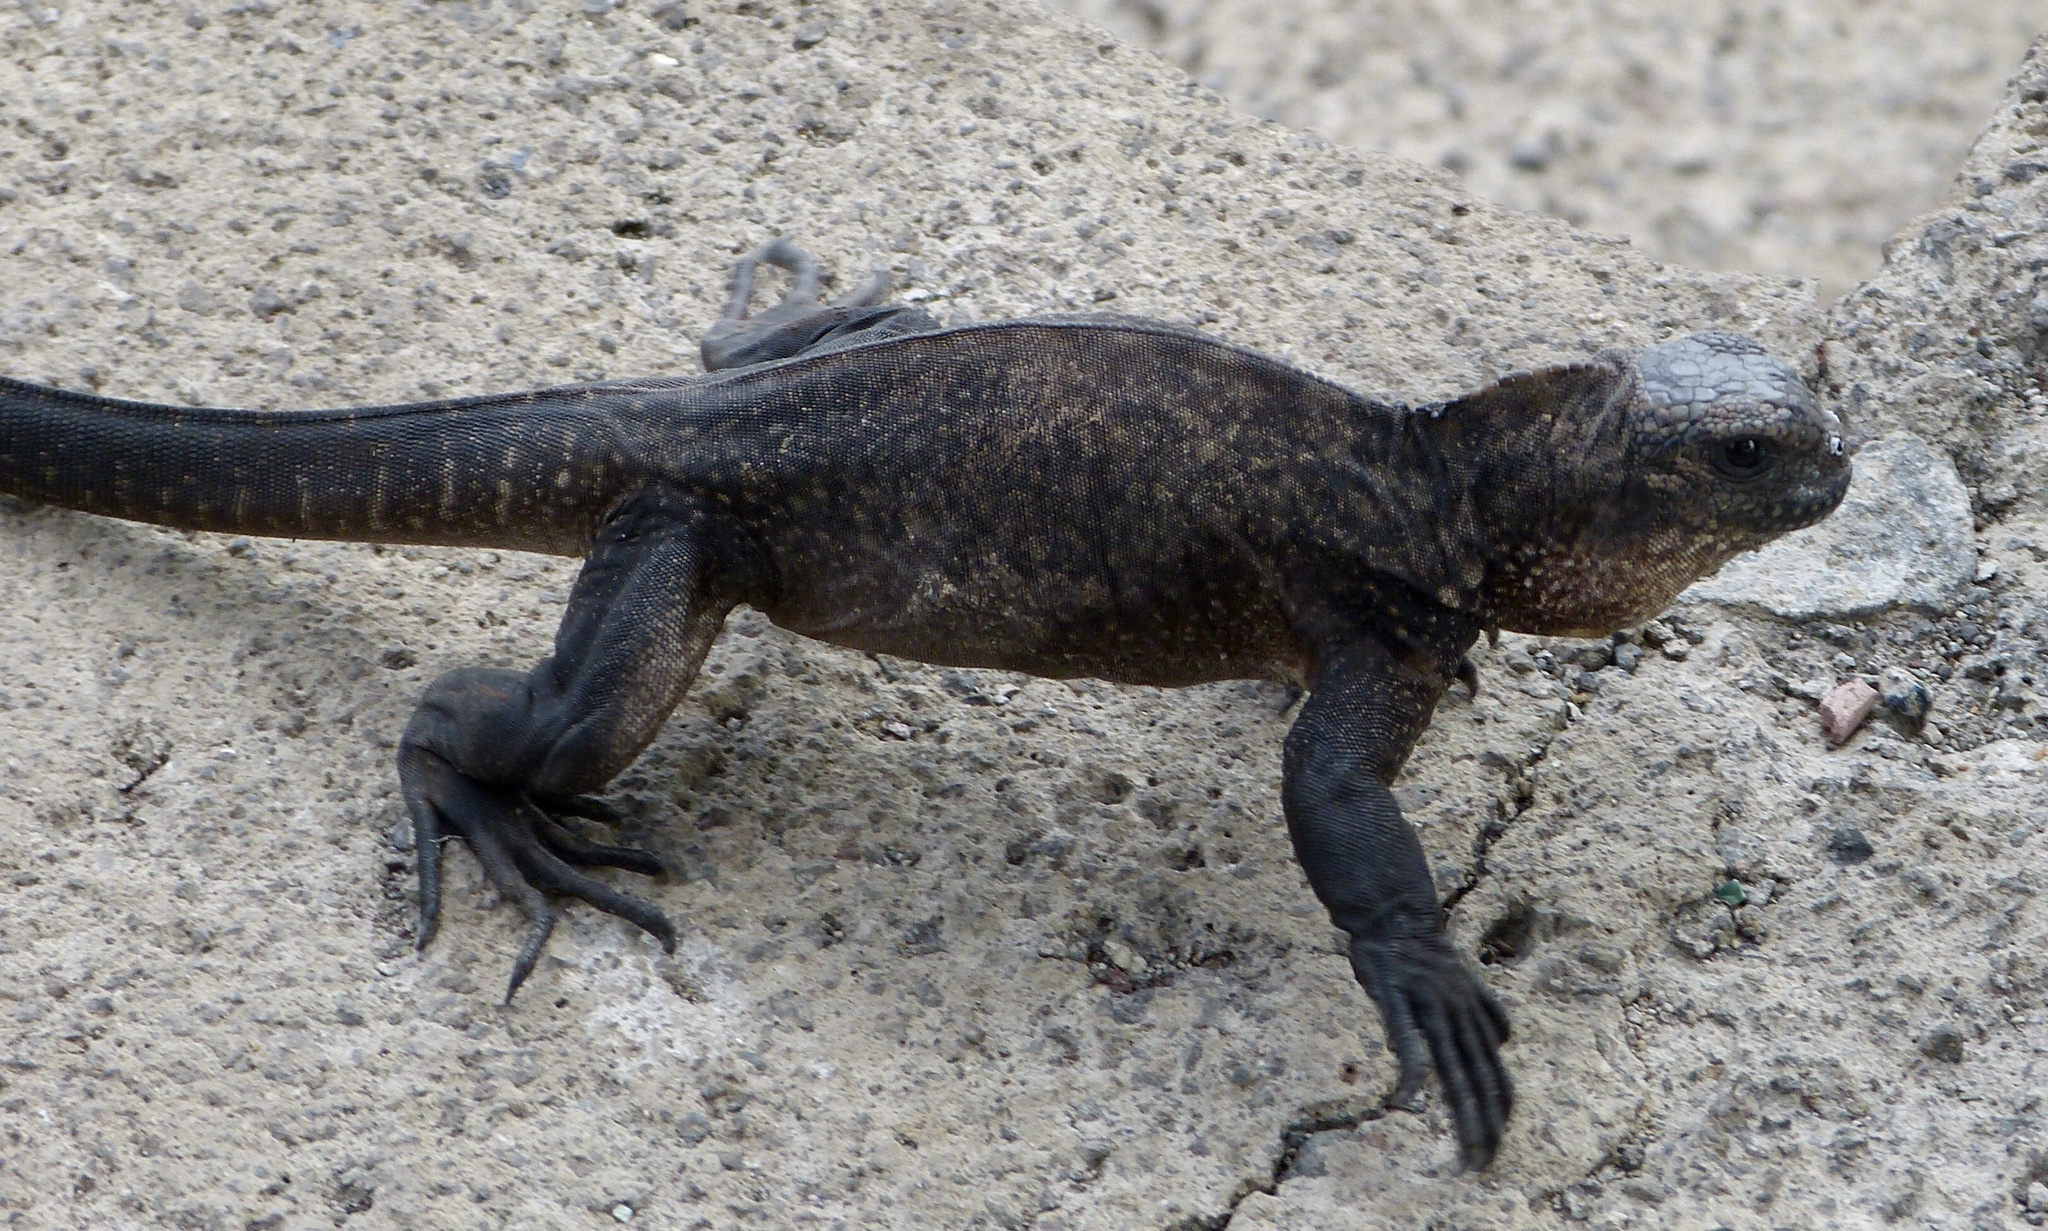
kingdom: Animalia
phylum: Chordata
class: Squamata
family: Iguanidae
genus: Amblyrhynchus
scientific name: Amblyrhynchus cristatus
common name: Marine iguana
